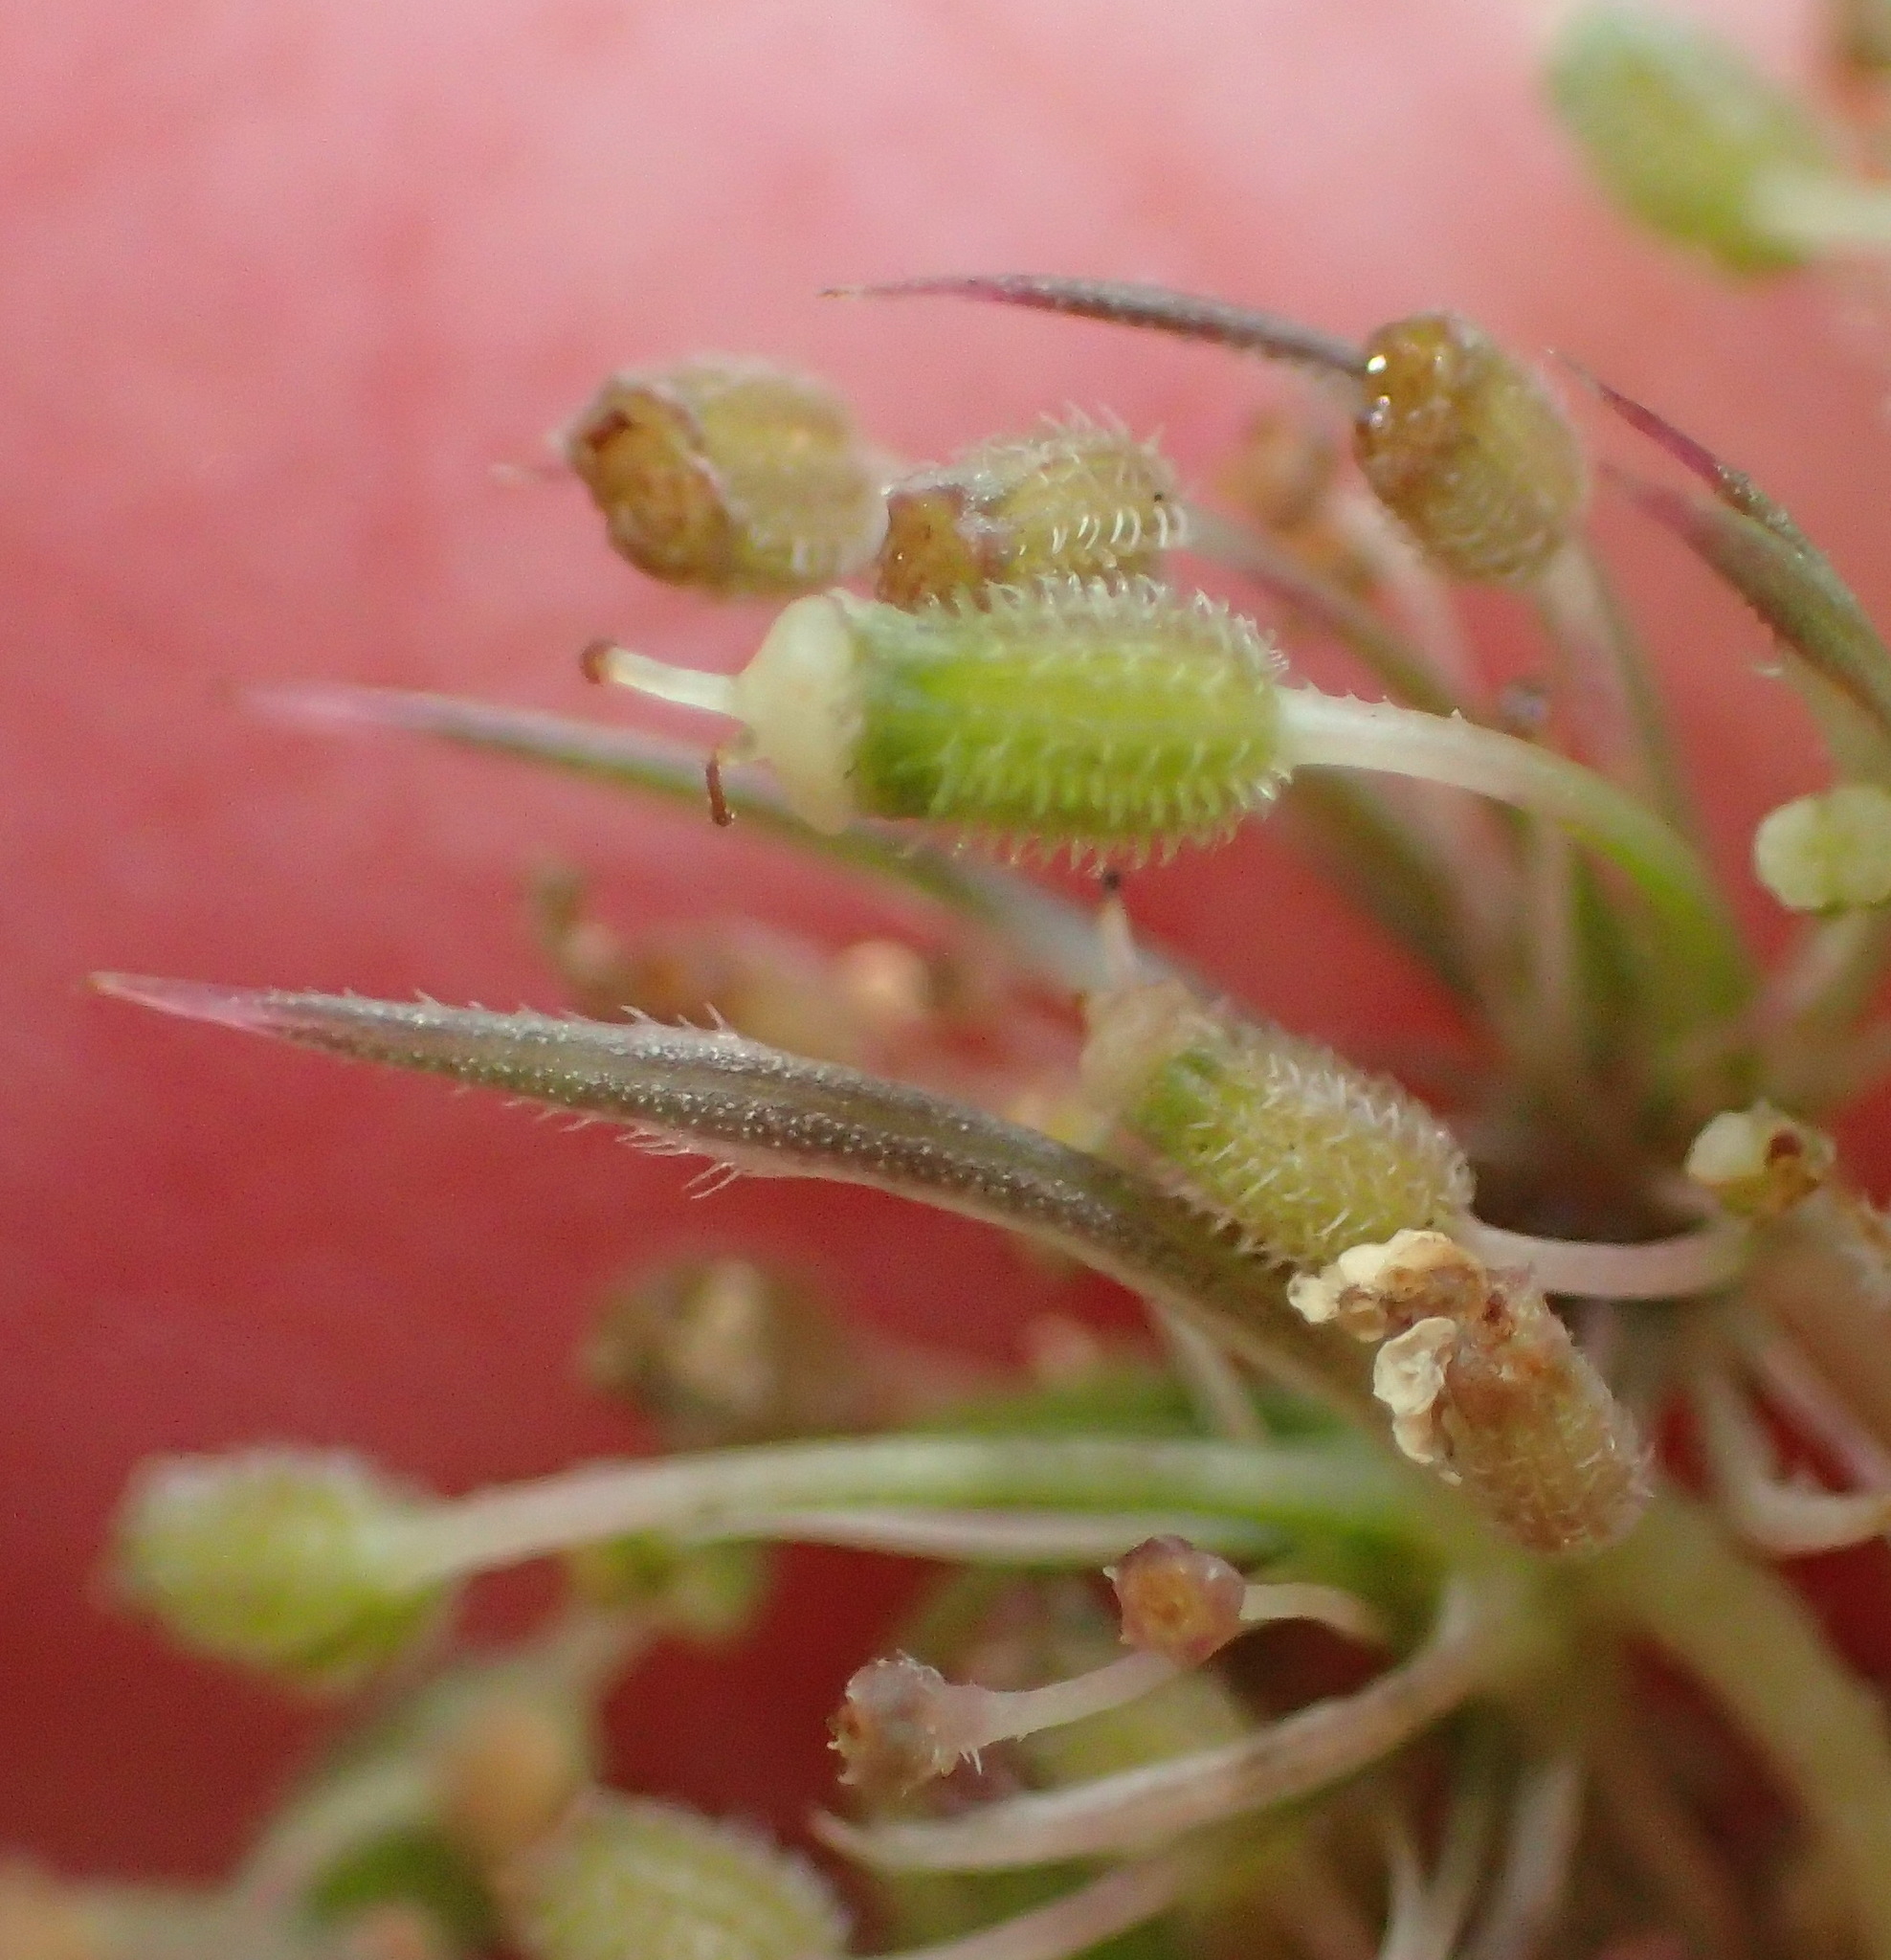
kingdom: Plantae
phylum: Tracheophyta
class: Magnoliopsida
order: Apiales
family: Apiaceae
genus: Daucus
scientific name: Daucus carota
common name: Wild carrot
